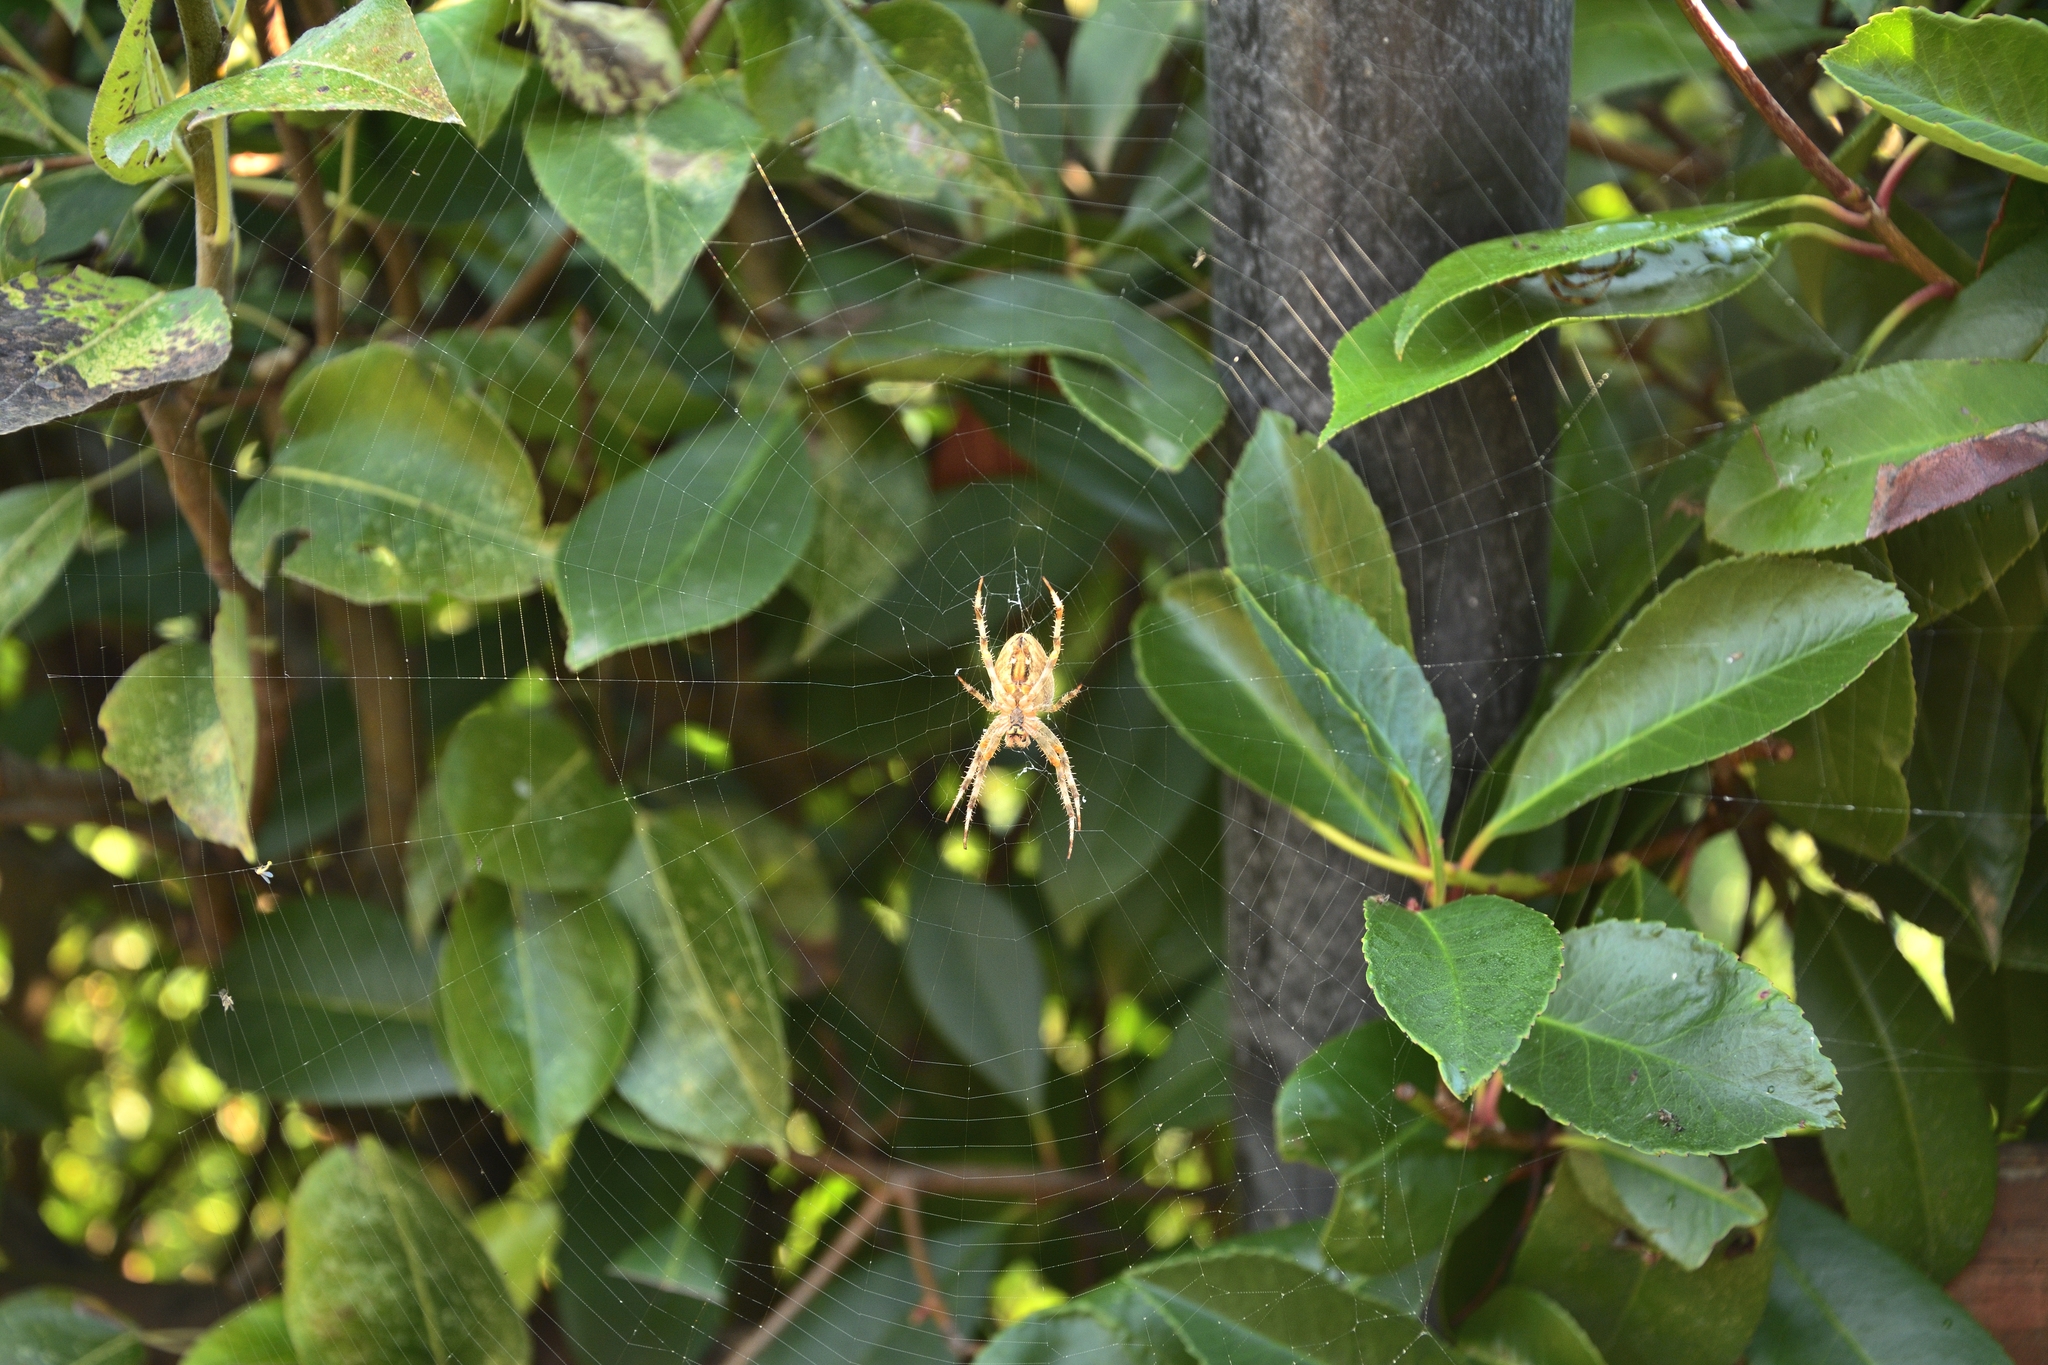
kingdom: Animalia
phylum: Arthropoda
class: Arachnida
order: Araneae
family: Araneidae
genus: Araneus
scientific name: Araneus diadematus
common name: Cross orbweaver
